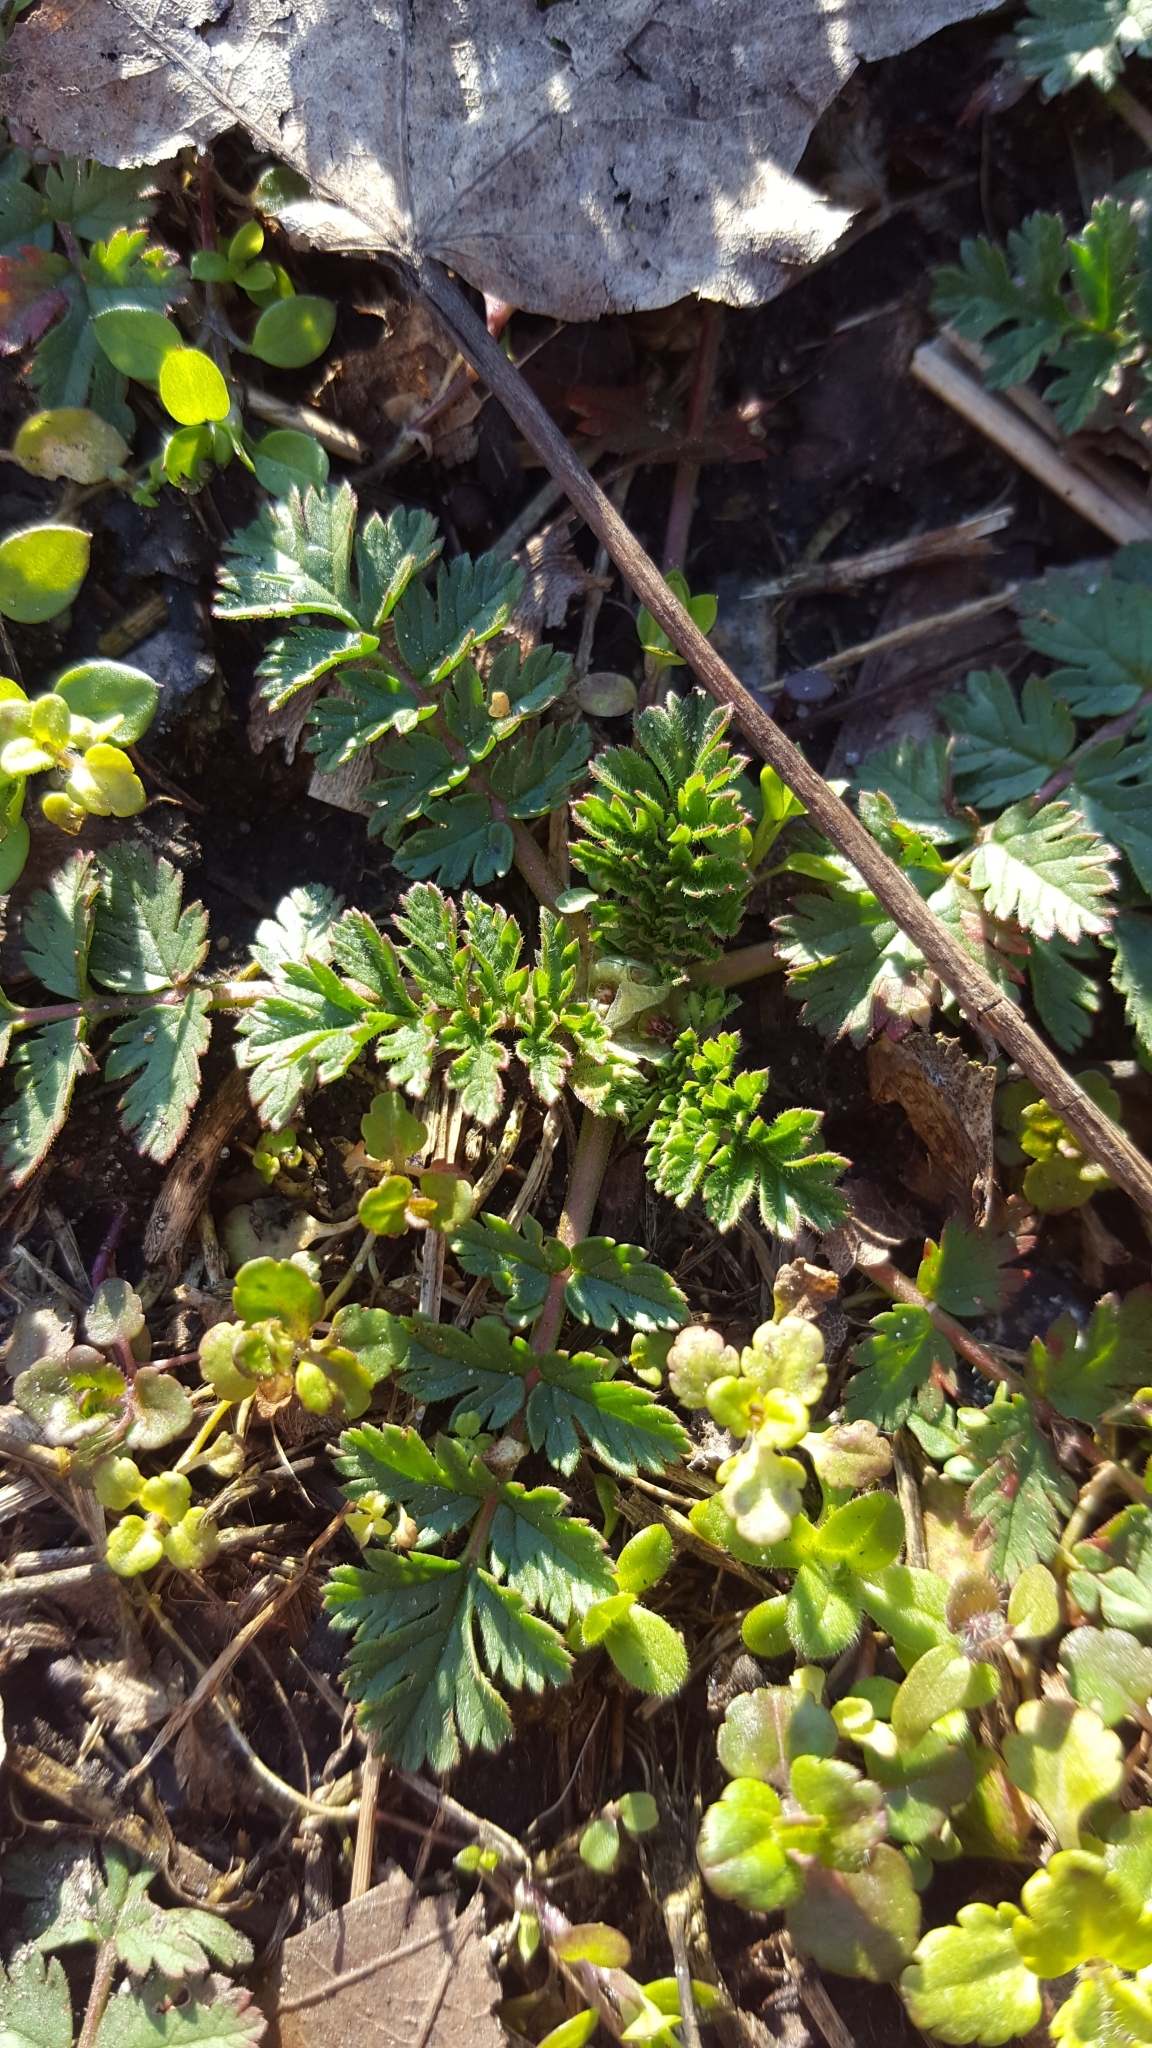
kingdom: Plantae
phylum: Tracheophyta
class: Magnoliopsida
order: Geraniales
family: Geraniaceae
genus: Erodium
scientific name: Erodium cicutarium
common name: Common stork's-bill
